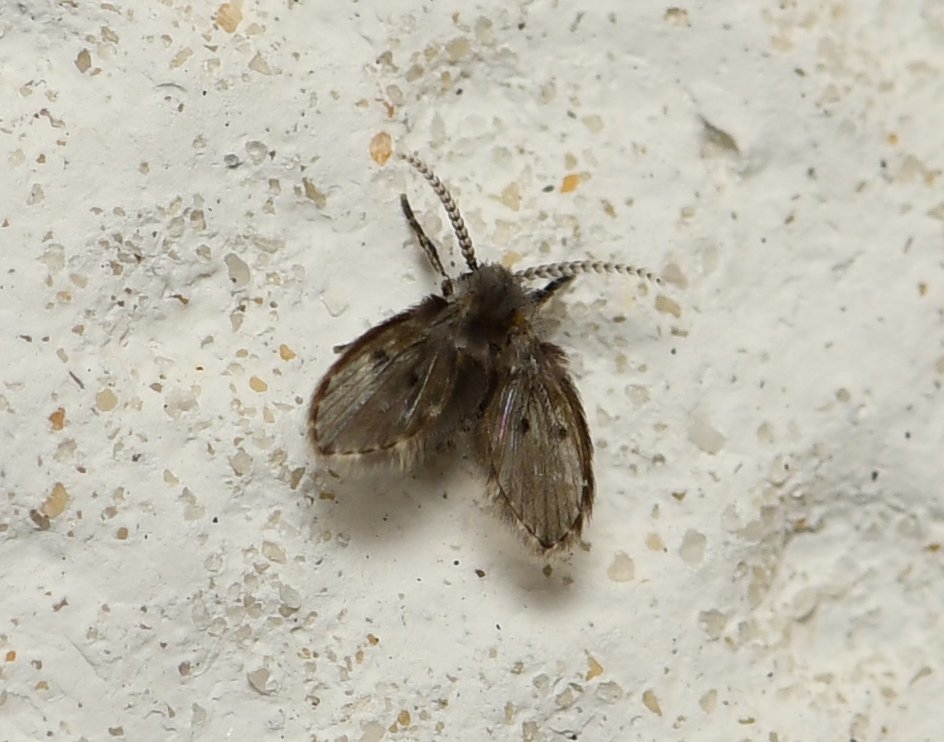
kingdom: Animalia
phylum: Arthropoda
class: Insecta
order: Diptera
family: Psychodidae
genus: Clogmia
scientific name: Clogmia albipunctatus
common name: White-spotted moth fly
